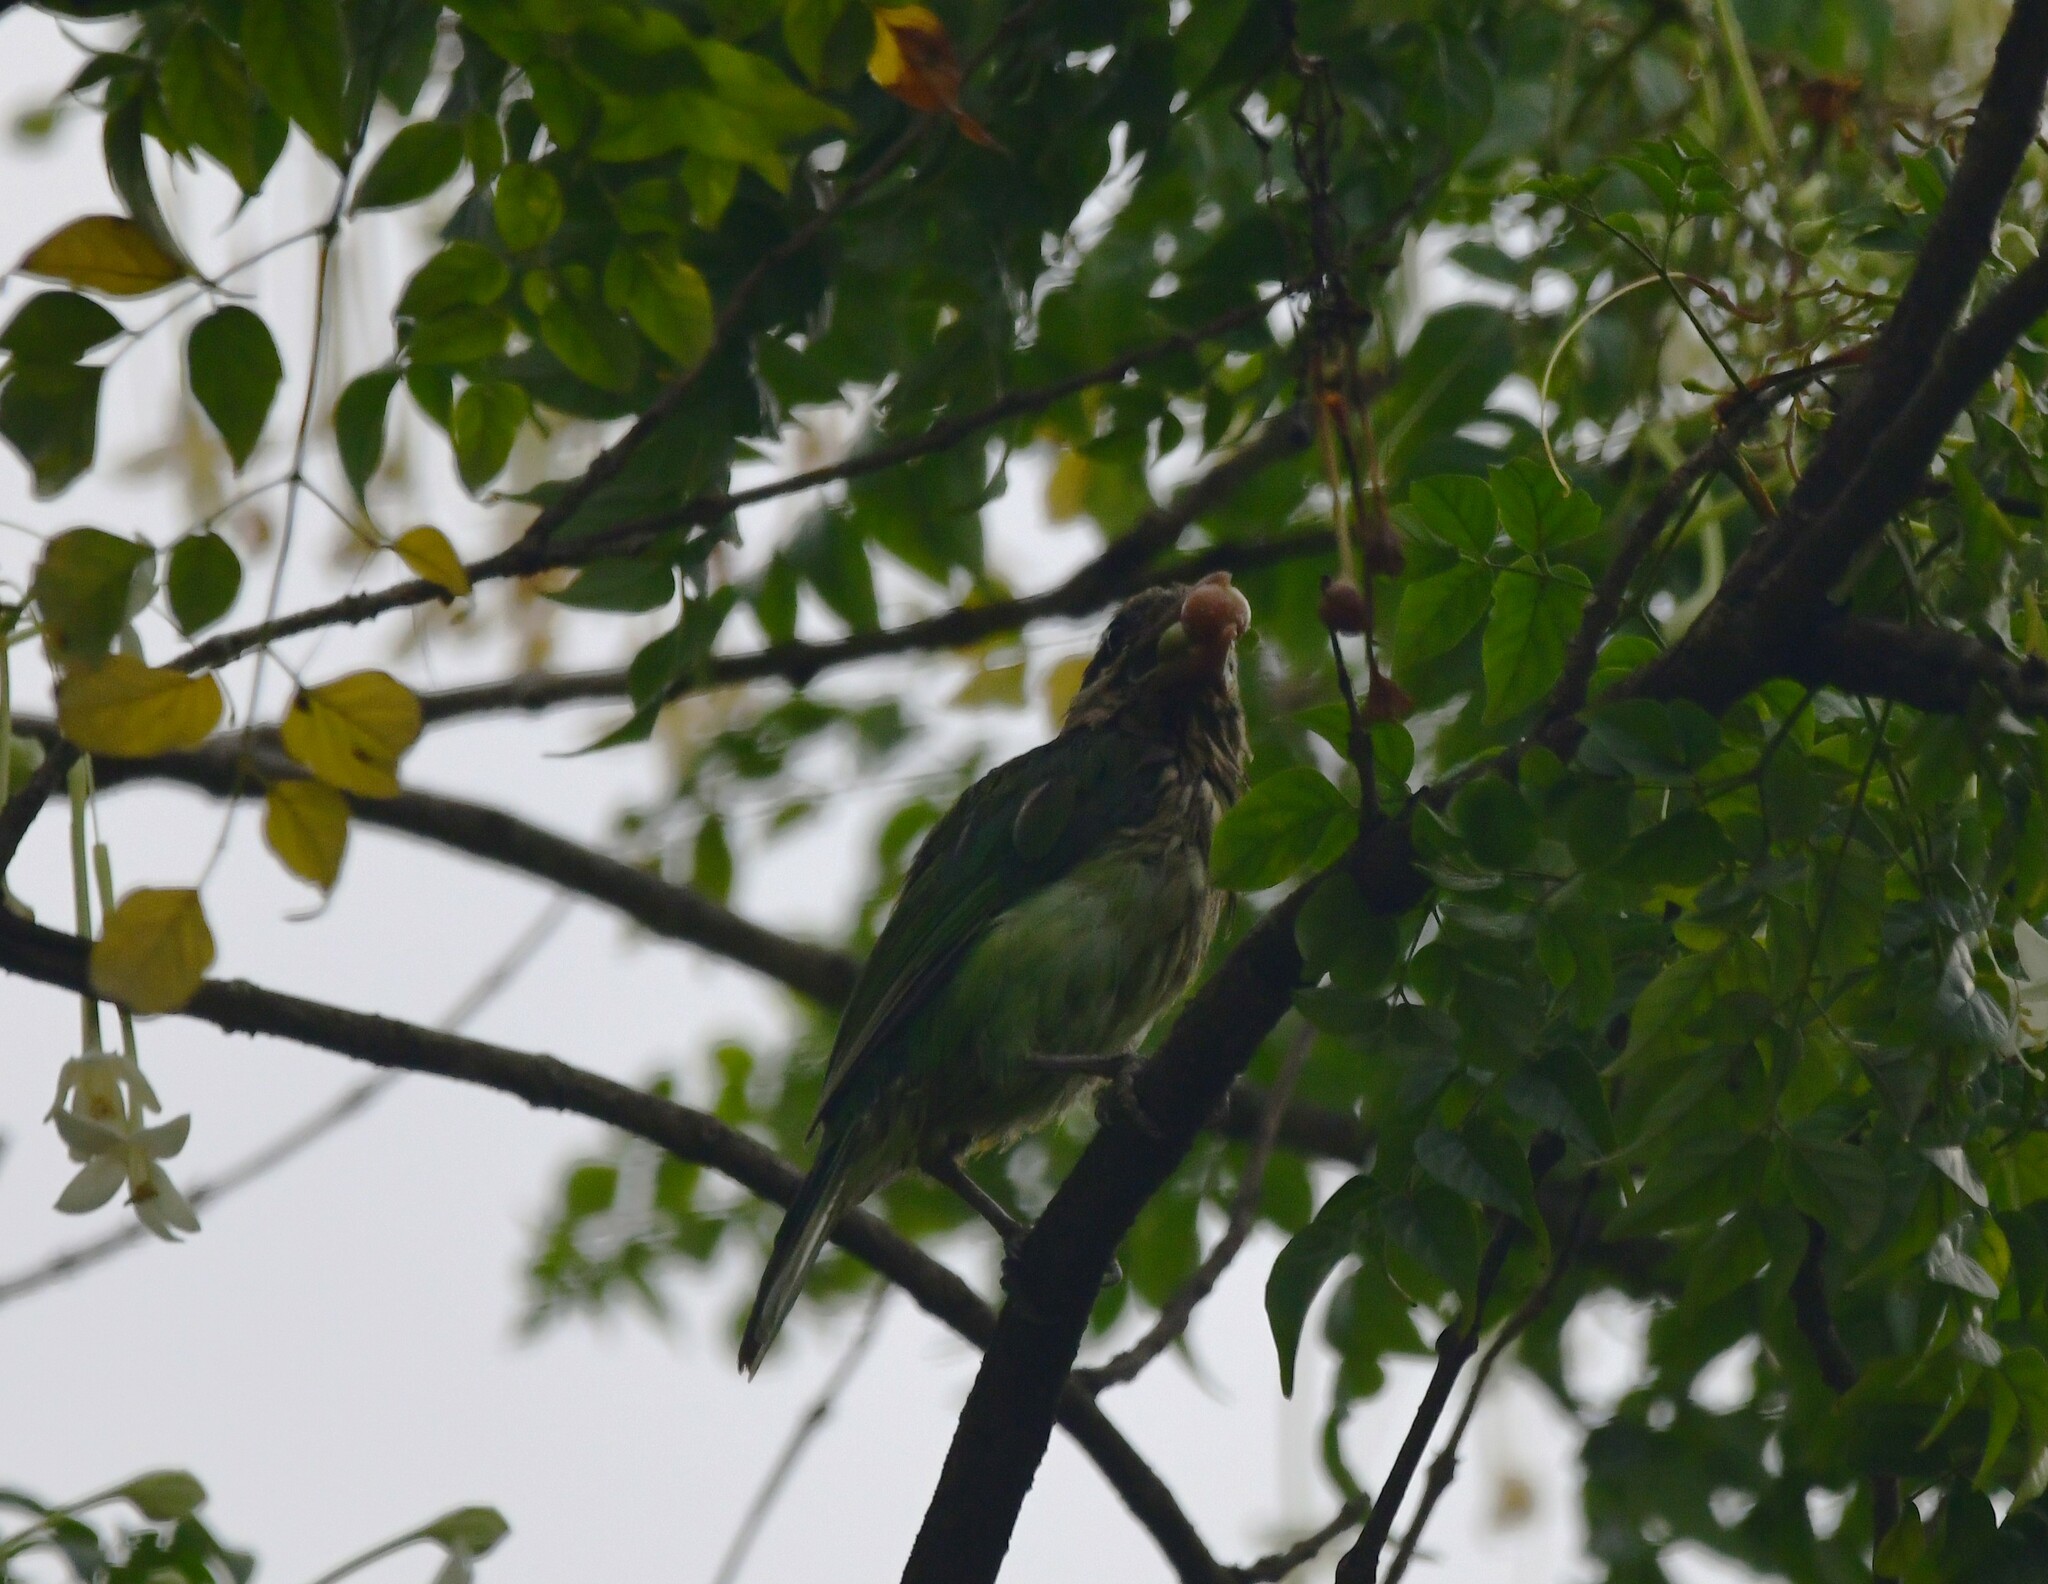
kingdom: Animalia
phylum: Chordata
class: Aves
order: Piciformes
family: Megalaimidae
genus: Psilopogon
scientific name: Psilopogon viridis
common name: White-cheeked barbet
